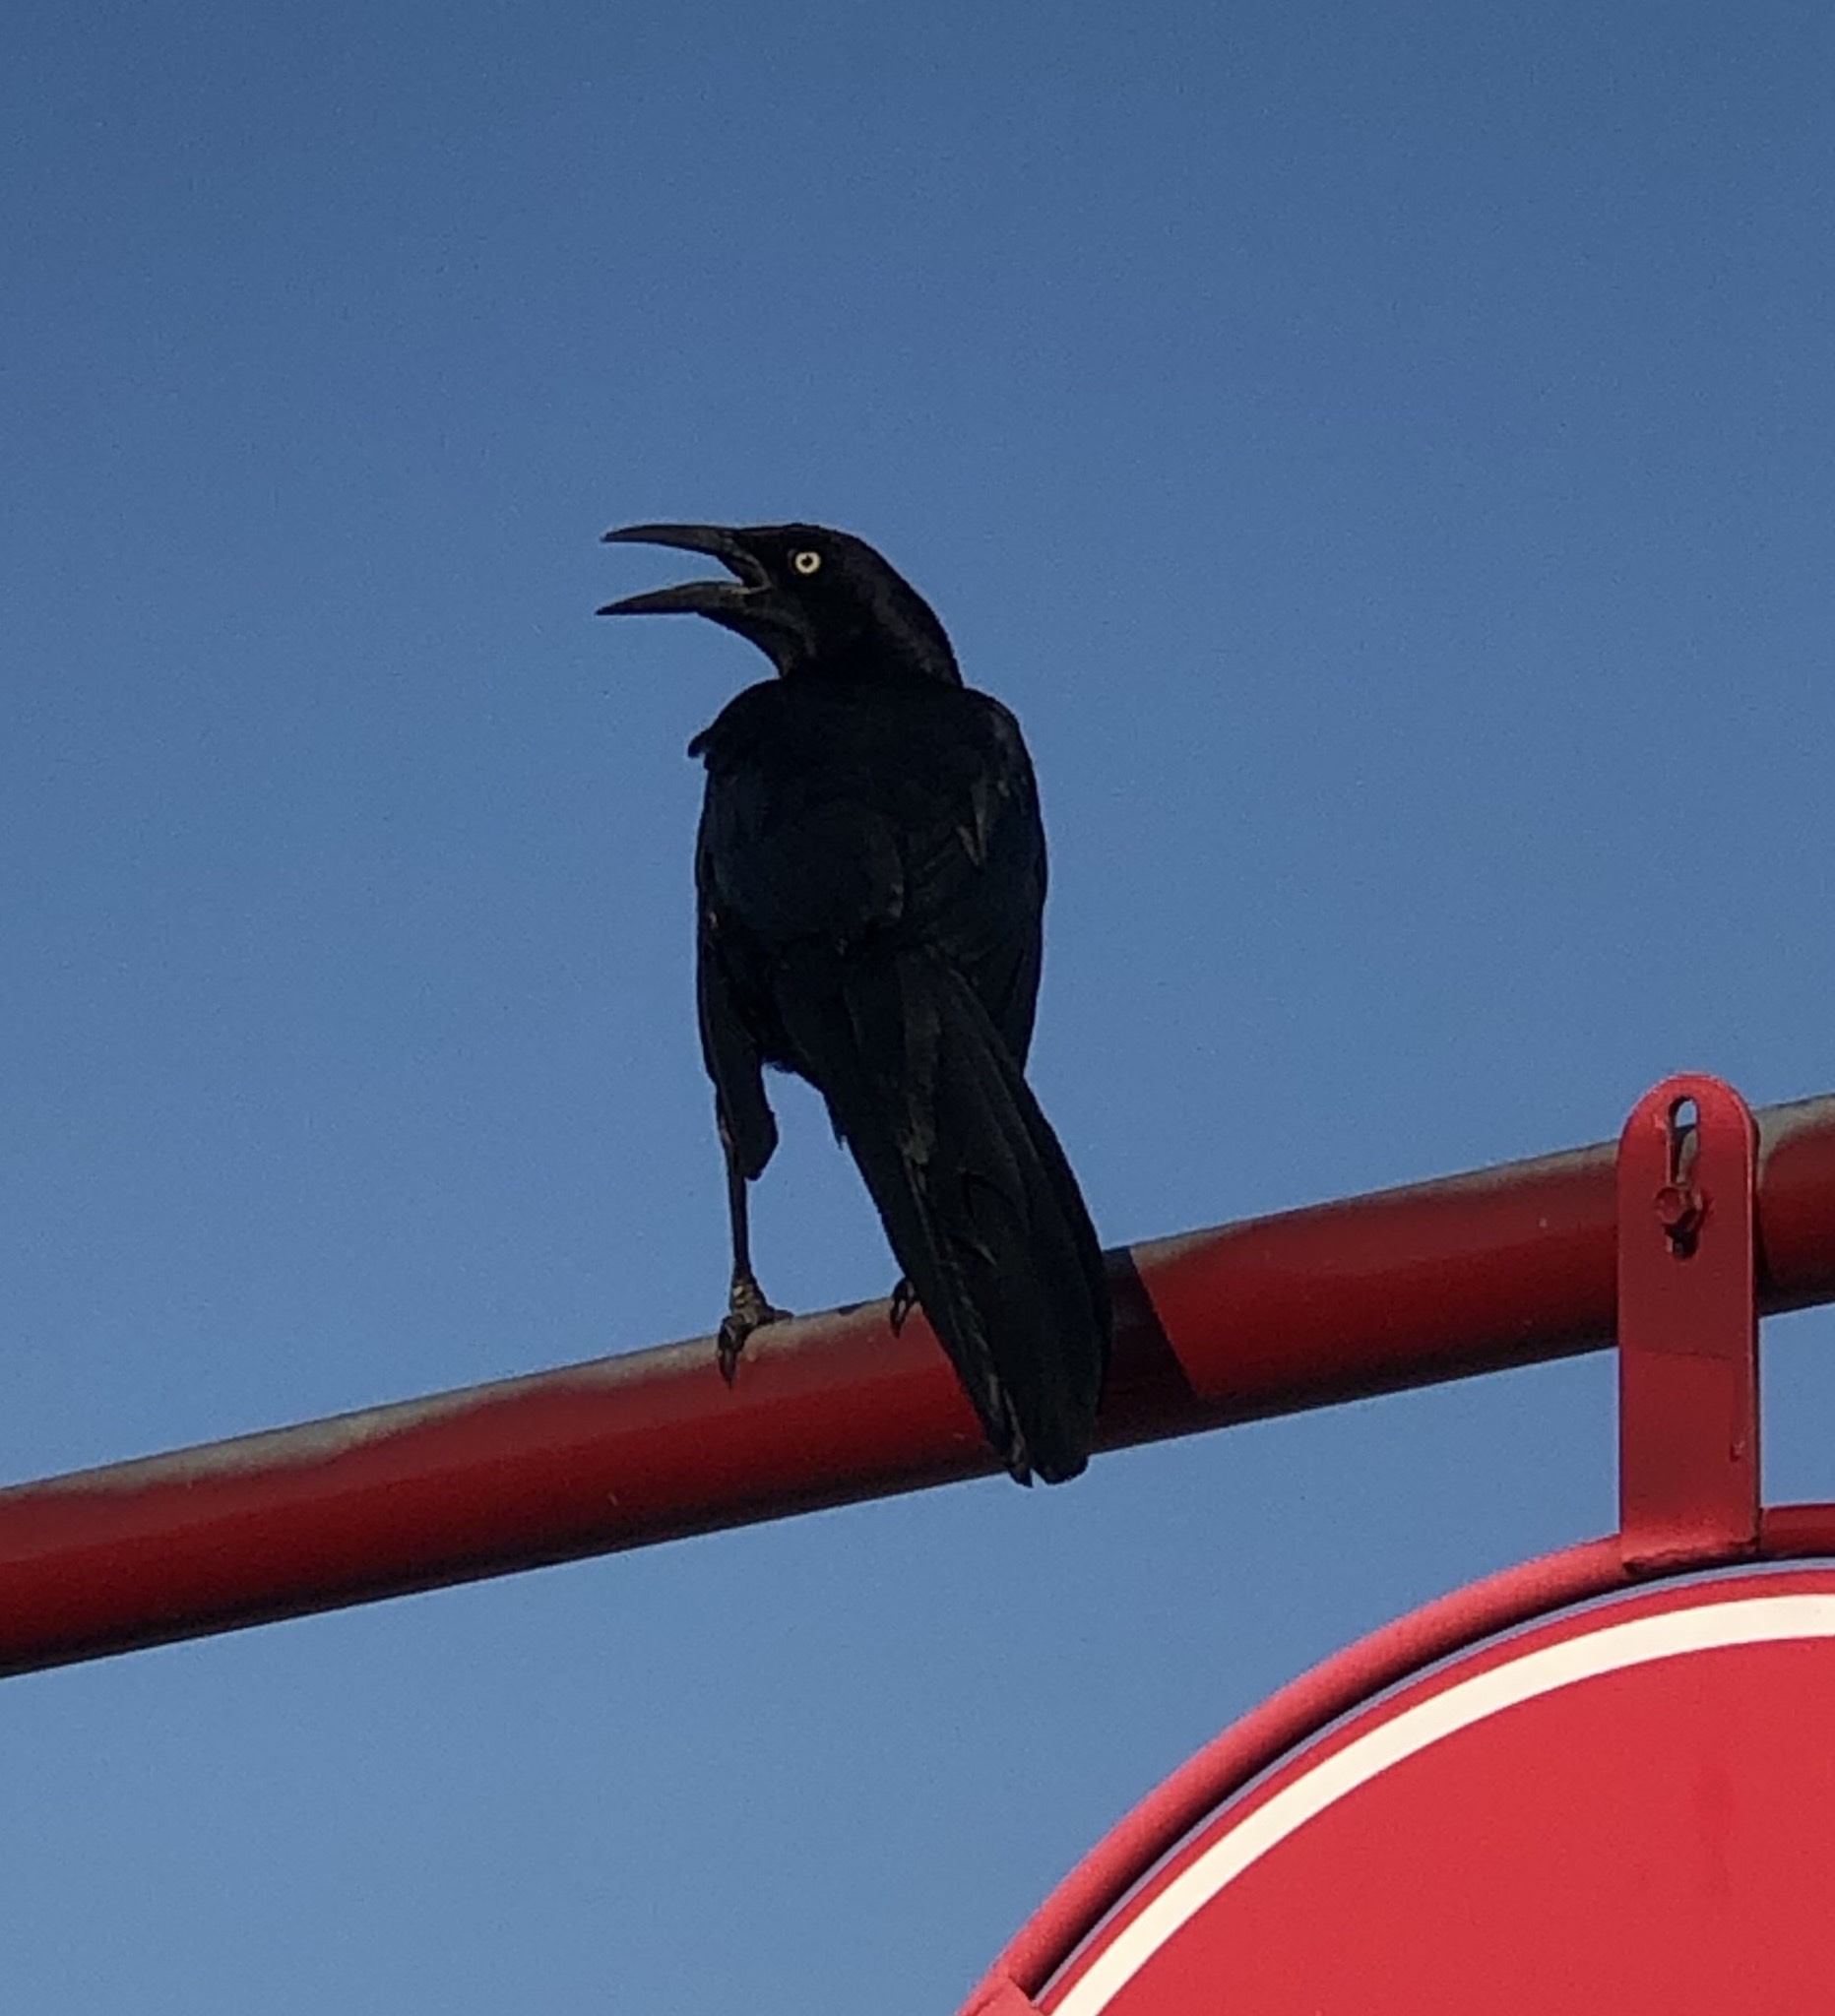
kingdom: Animalia
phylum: Chordata
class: Aves
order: Passeriformes
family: Icteridae
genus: Quiscalus
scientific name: Quiscalus mexicanus
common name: Great-tailed grackle
